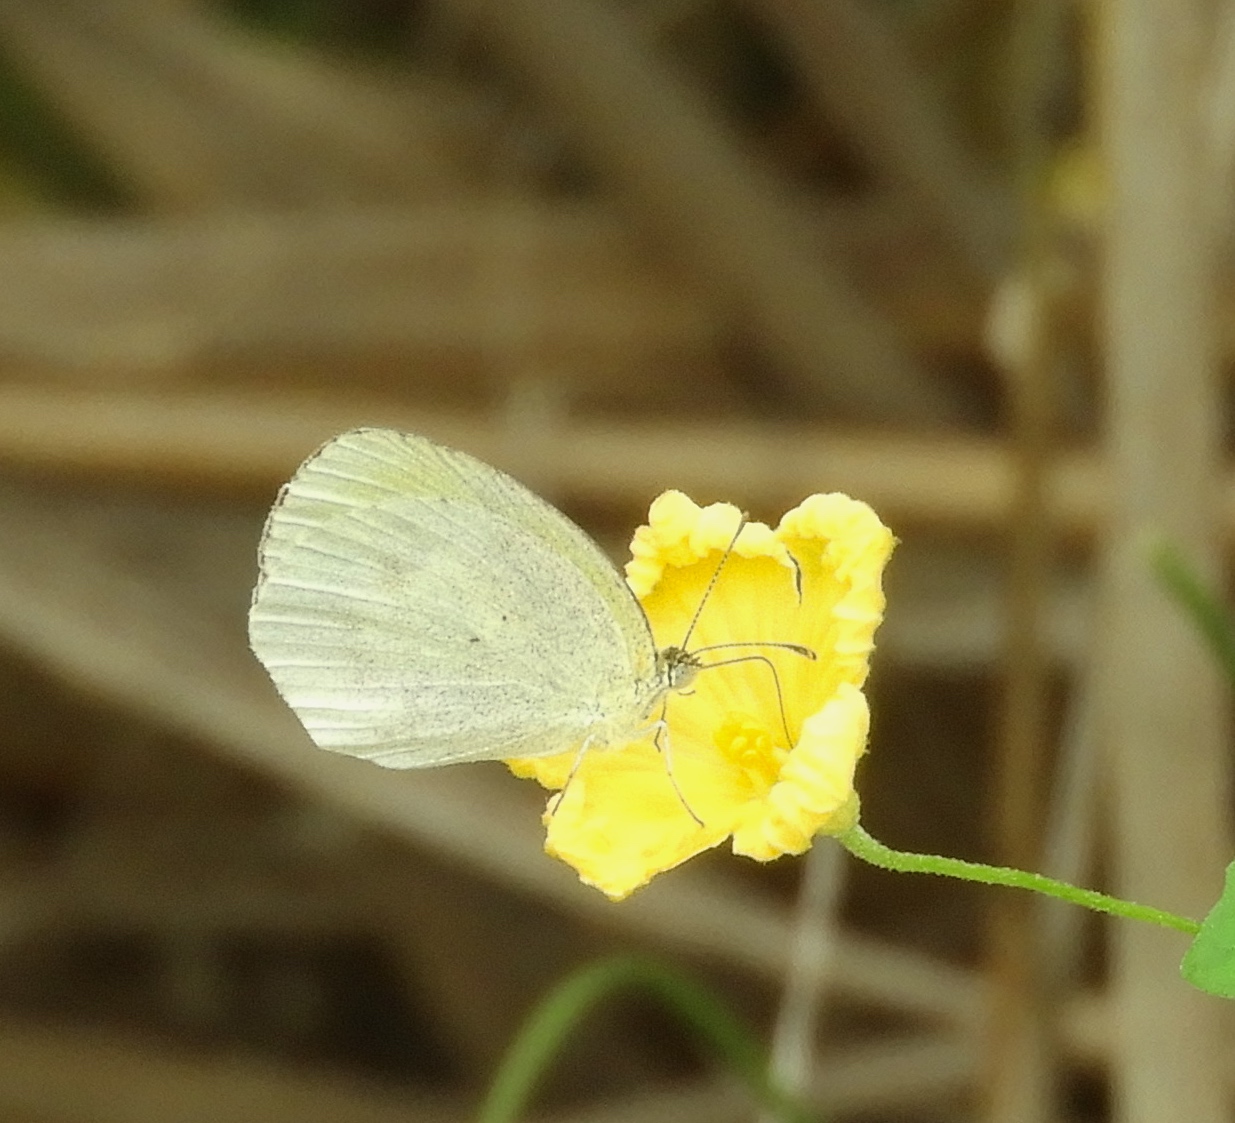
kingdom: Animalia
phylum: Arthropoda
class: Insecta
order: Lepidoptera
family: Pieridae
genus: Eurema
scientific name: Eurema daira
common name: Barred sulphur
